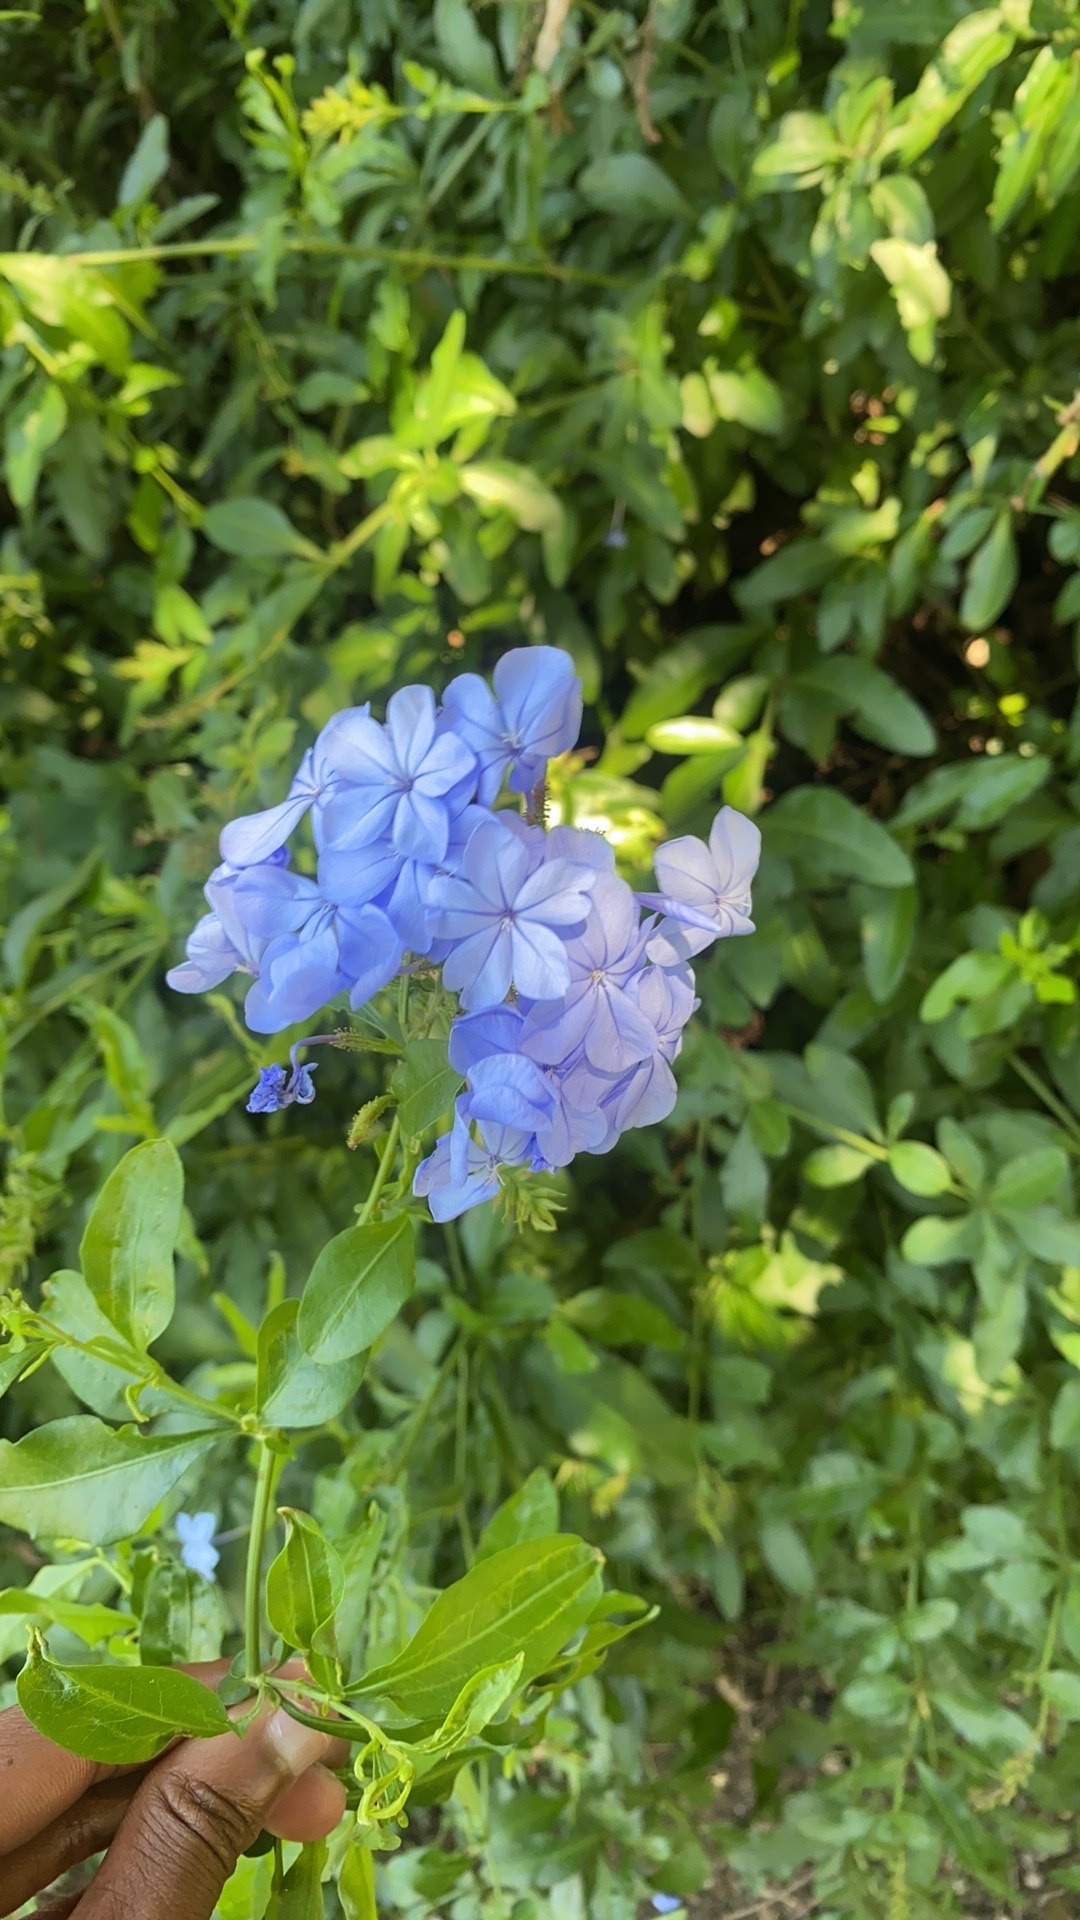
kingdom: Plantae
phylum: Tracheophyta
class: Magnoliopsida
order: Caryophyllales
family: Plumbaginaceae
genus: Plumbago
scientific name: Plumbago auriculata
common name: Cape leadwort
